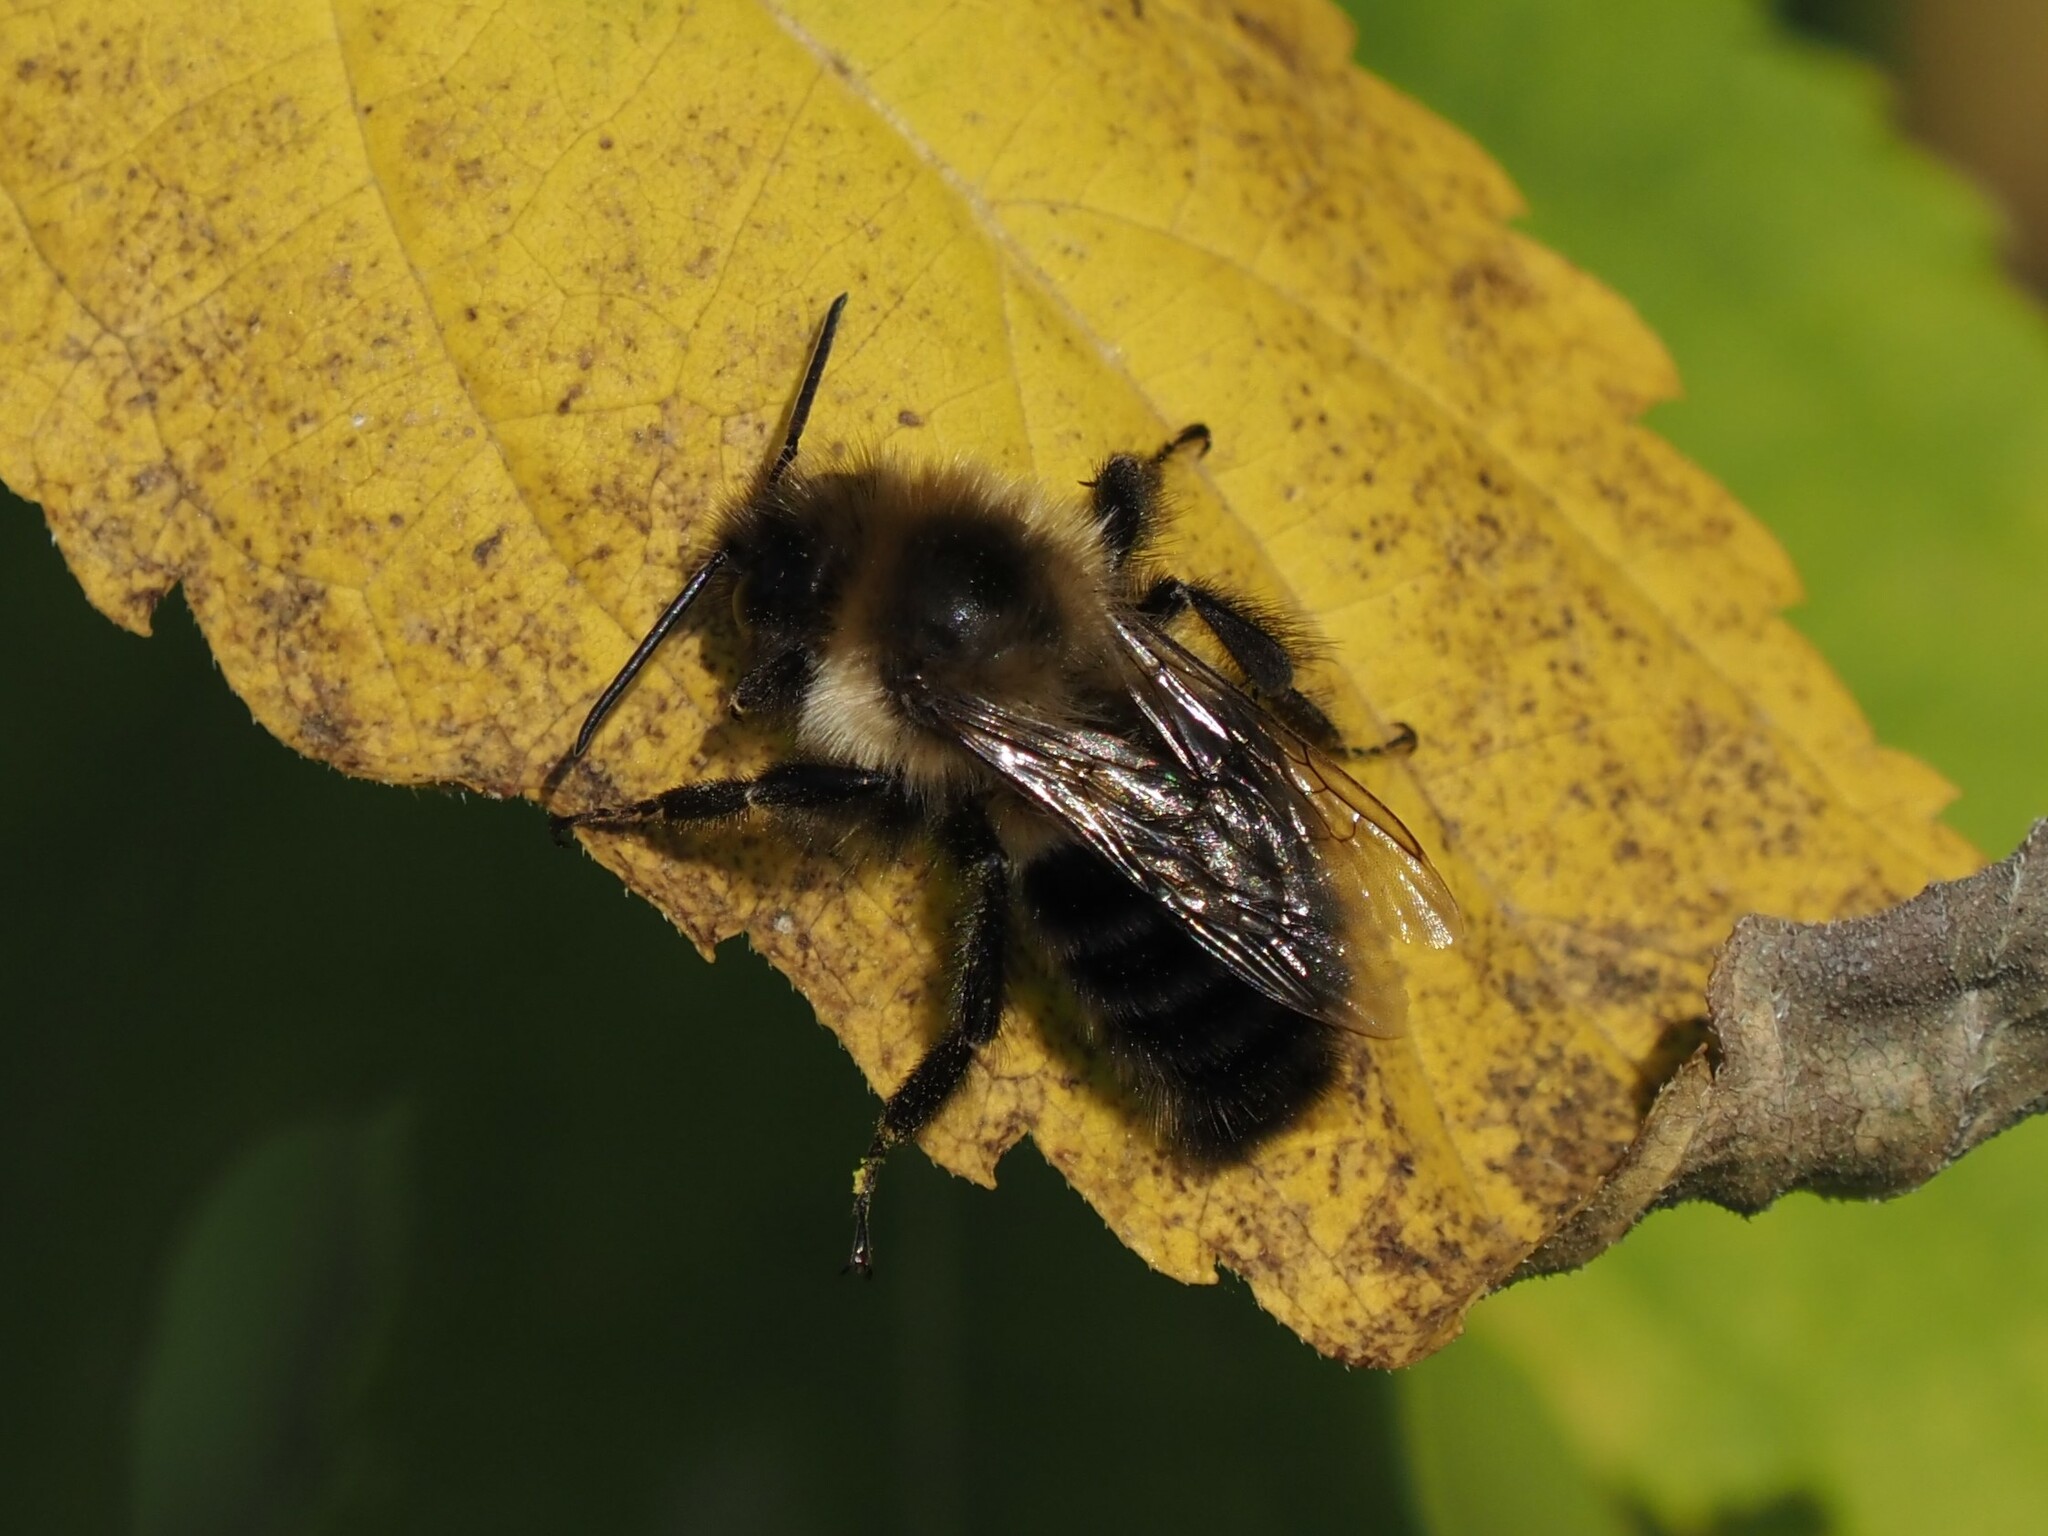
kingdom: Animalia
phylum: Arthropoda
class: Insecta
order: Hymenoptera
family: Apidae
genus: Bombus
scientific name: Bombus impatiens
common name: Common eastern bumble bee
